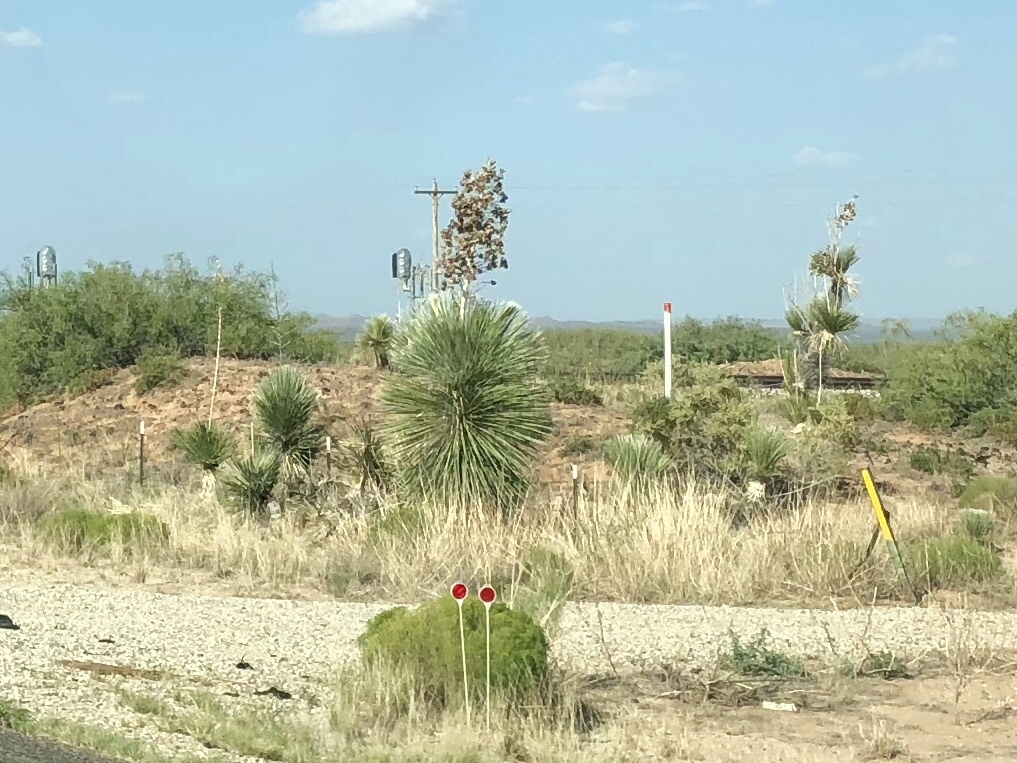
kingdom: Plantae
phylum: Tracheophyta
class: Liliopsida
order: Asparagales
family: Asparagaceae
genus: Yucca
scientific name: Yucca elata
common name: Palmella
